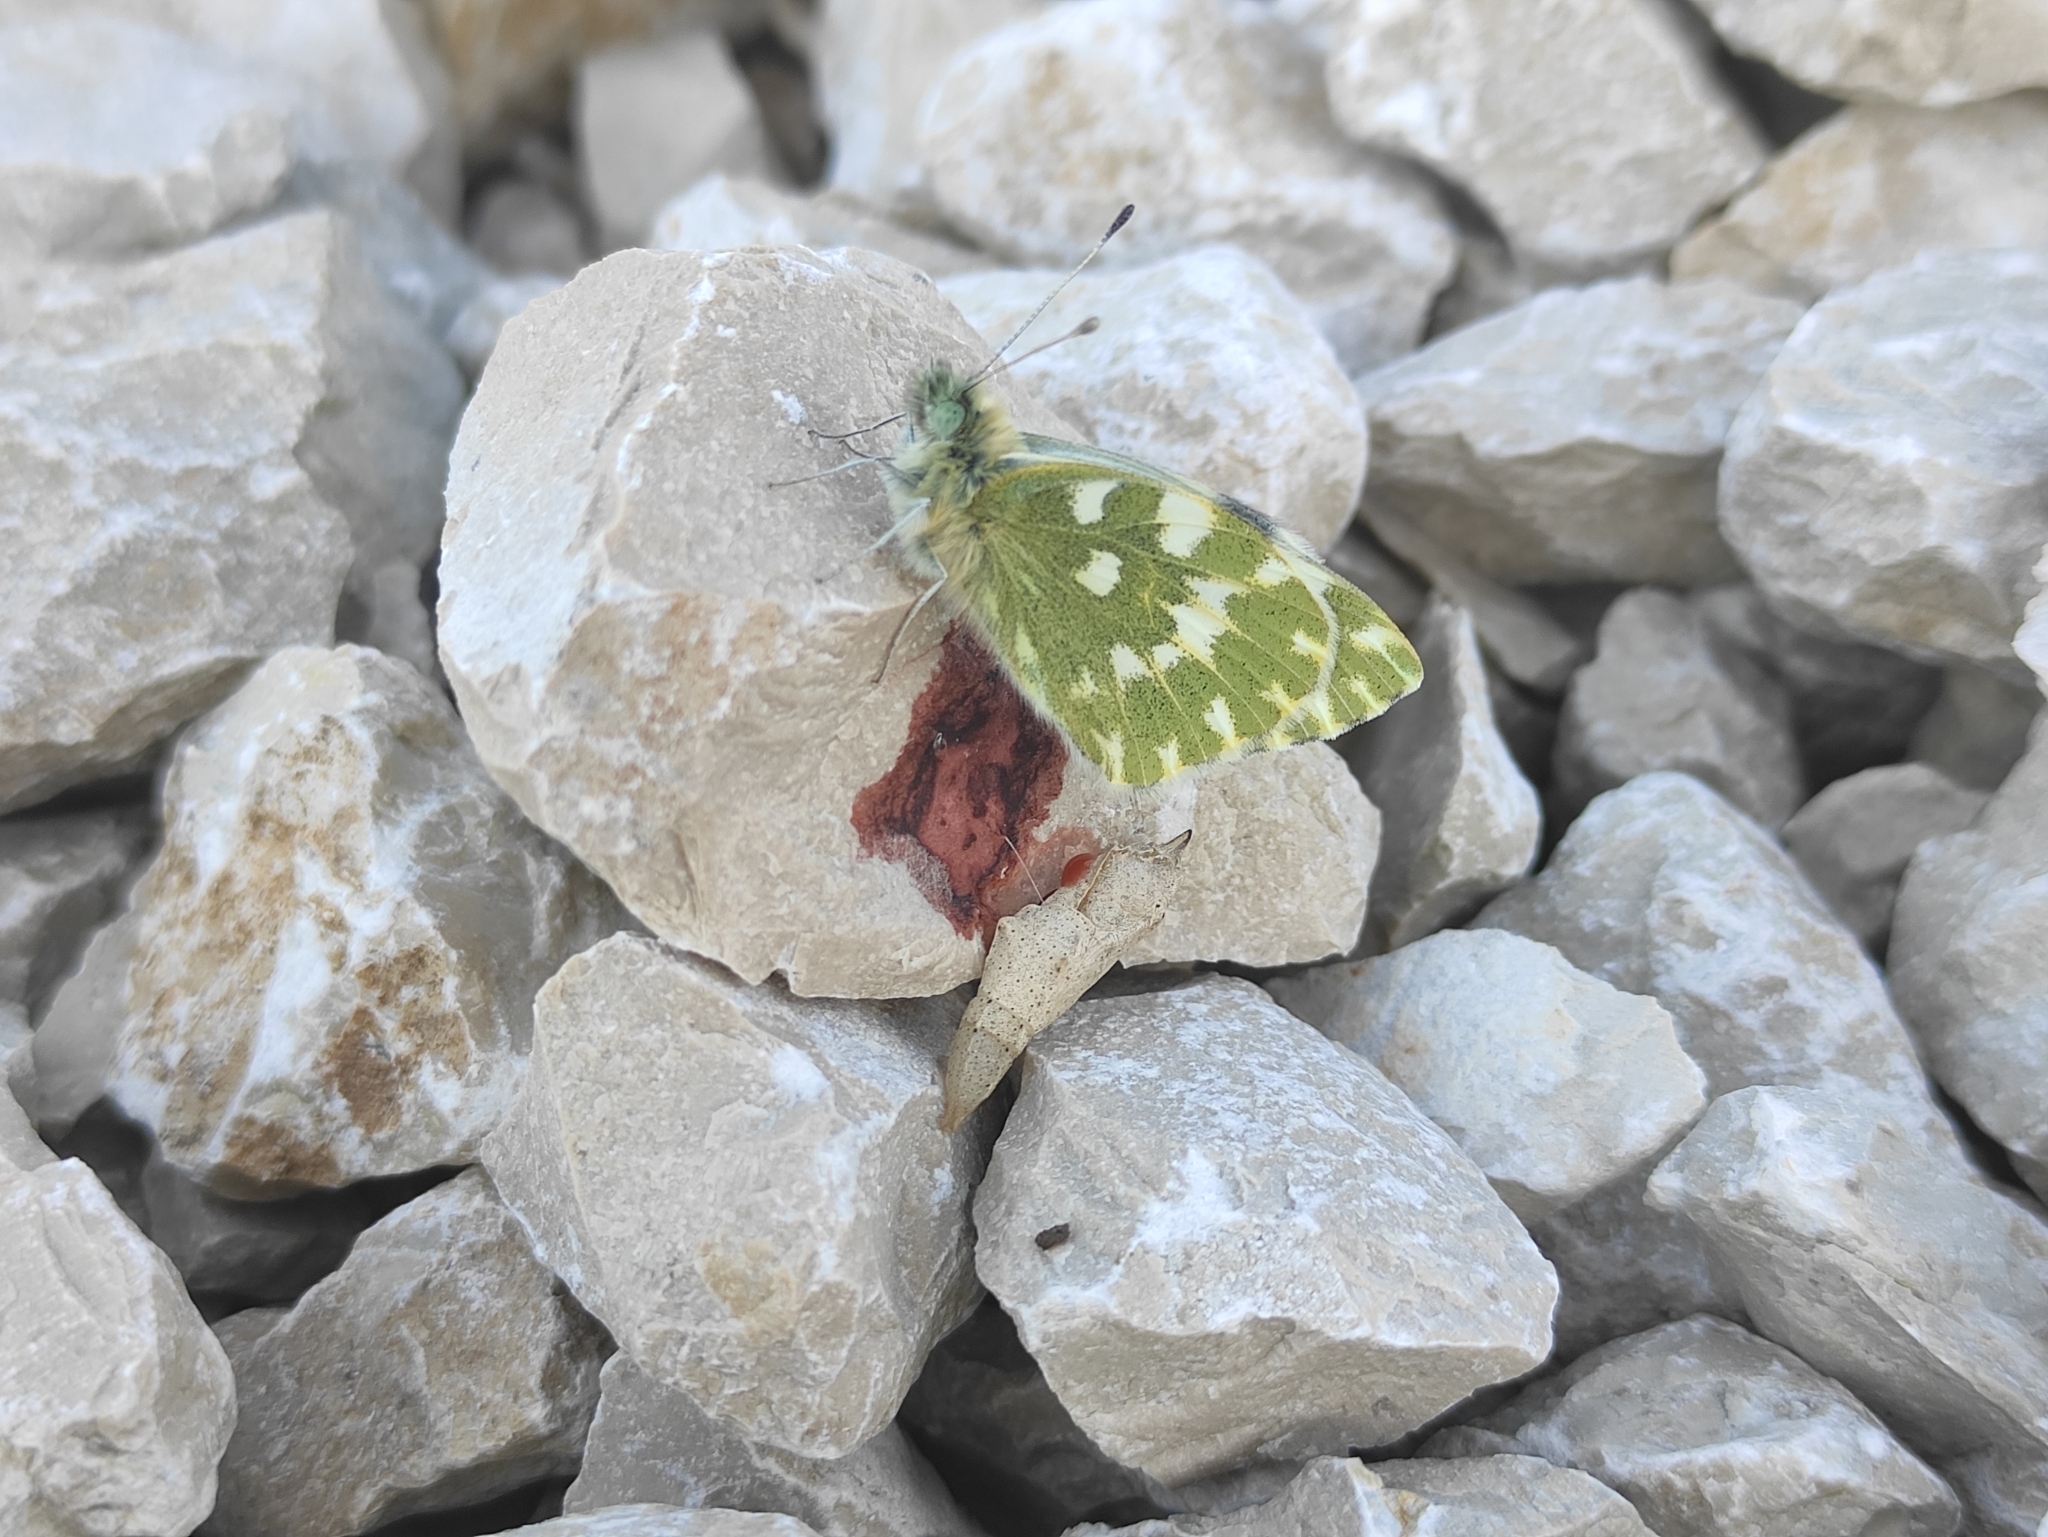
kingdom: Animalia
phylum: Arthropoda
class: Insecta
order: Lepidoptera
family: Pieridae
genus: Pontia
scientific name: Pontia daplidice
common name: Bath white
